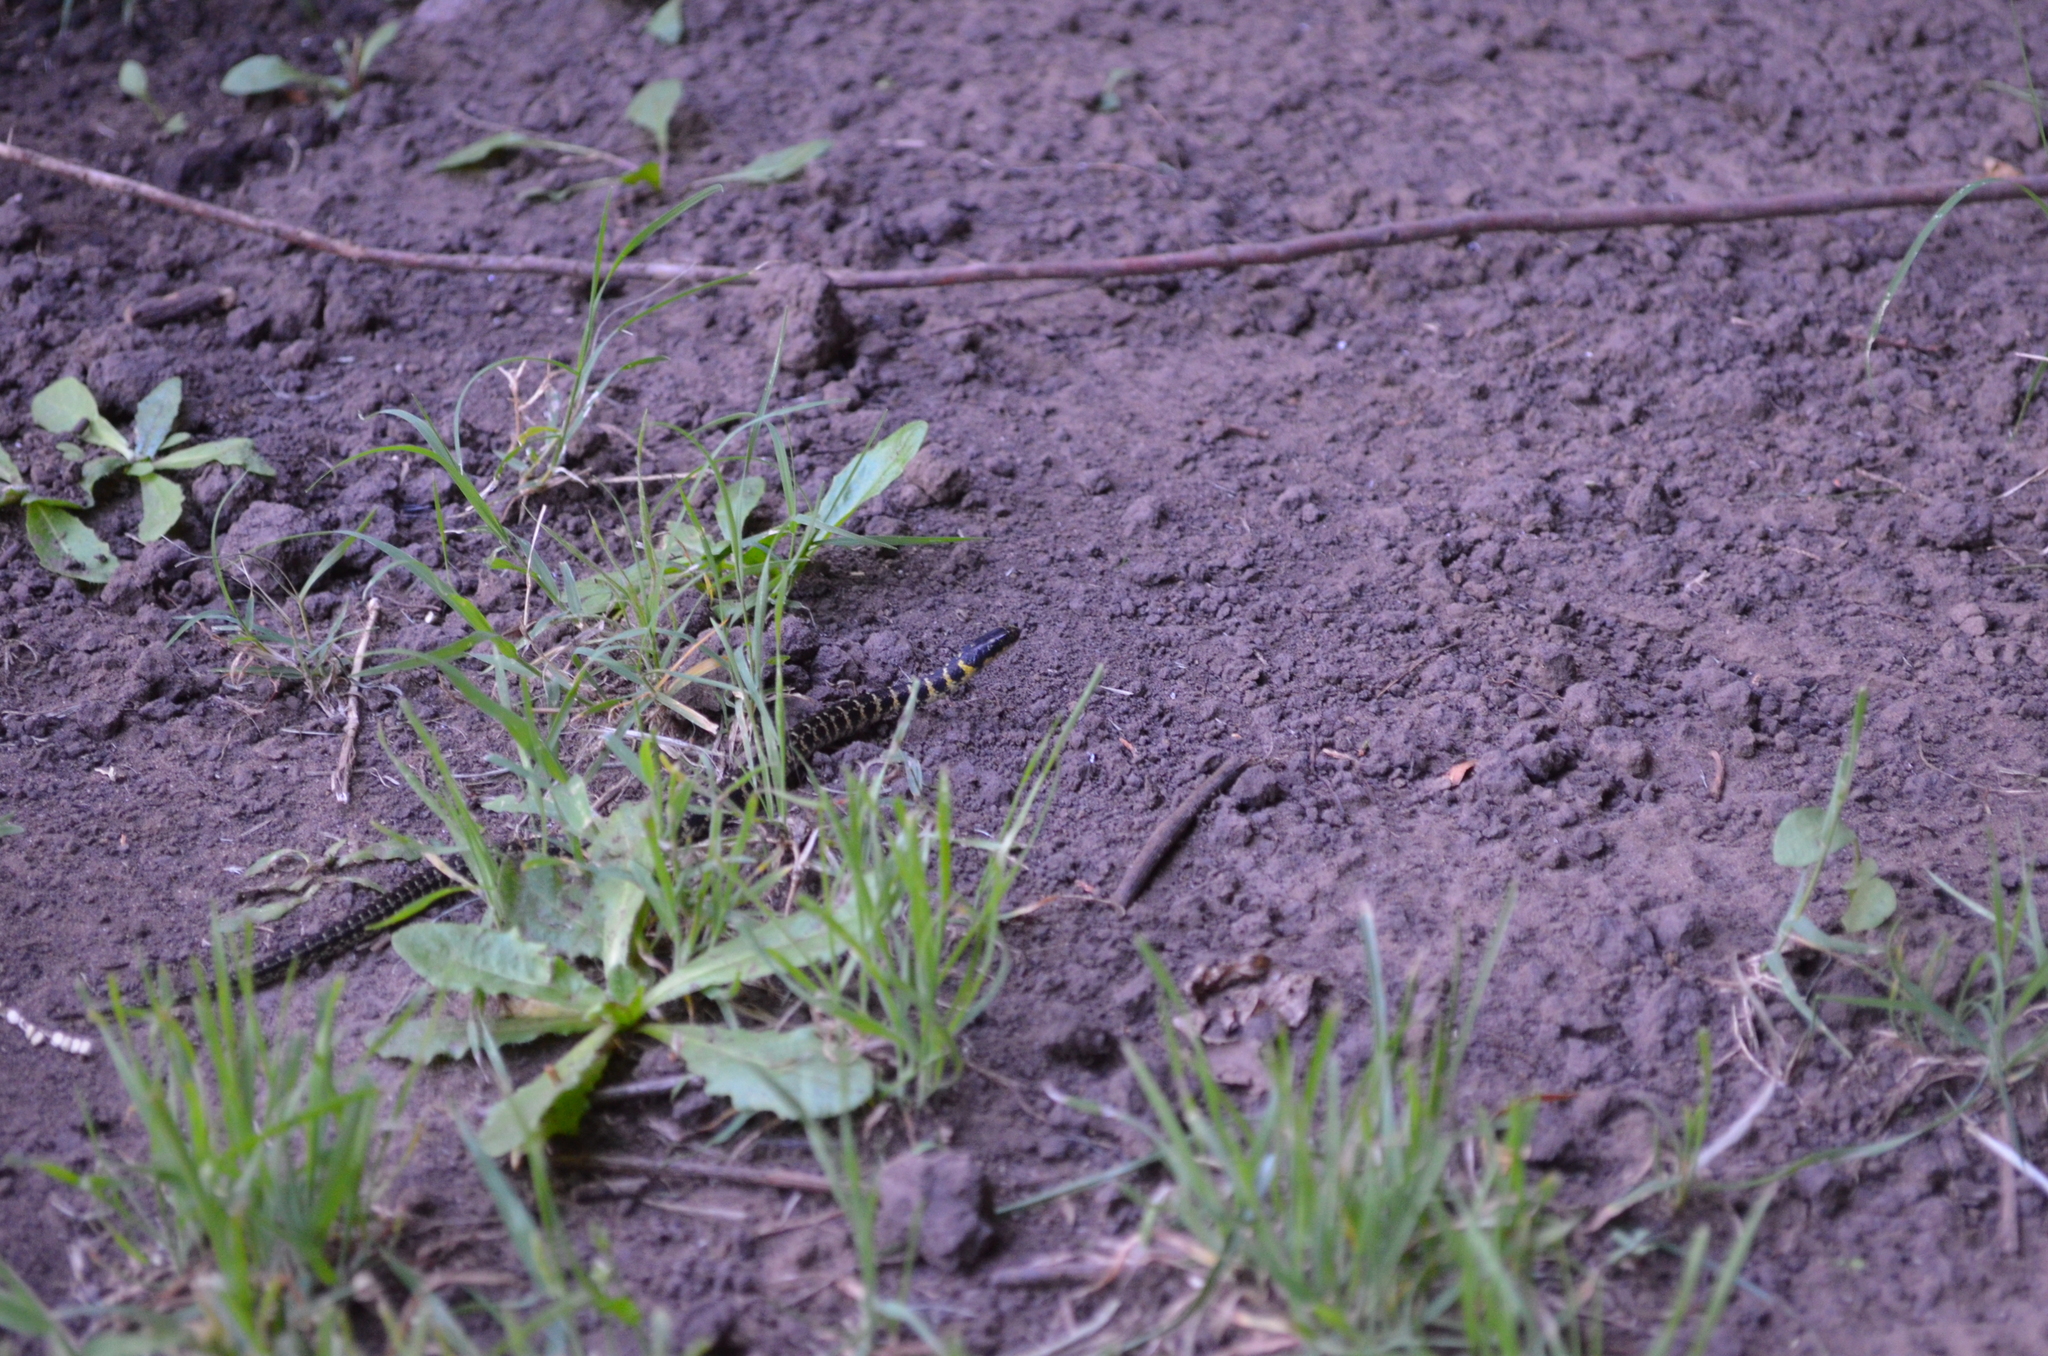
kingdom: Animalia
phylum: Chordata
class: Squamata
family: Colubridae
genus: Erythrolamprus
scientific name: Erythrolamprus poecilogyrus
